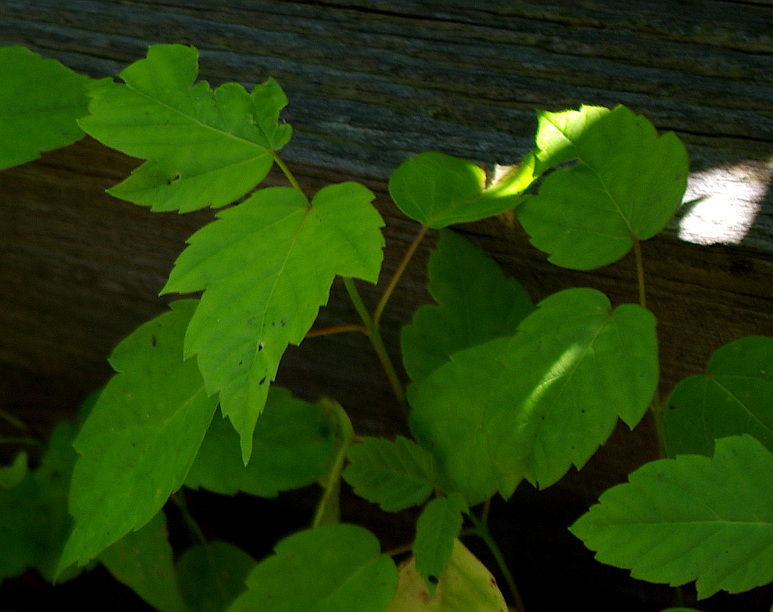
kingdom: Plantae
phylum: Tracheophyta
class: Magnoliopsida
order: Sapindales
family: Sapindaceae
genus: Acer
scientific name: Acer negundo
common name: Ashleaf maple
